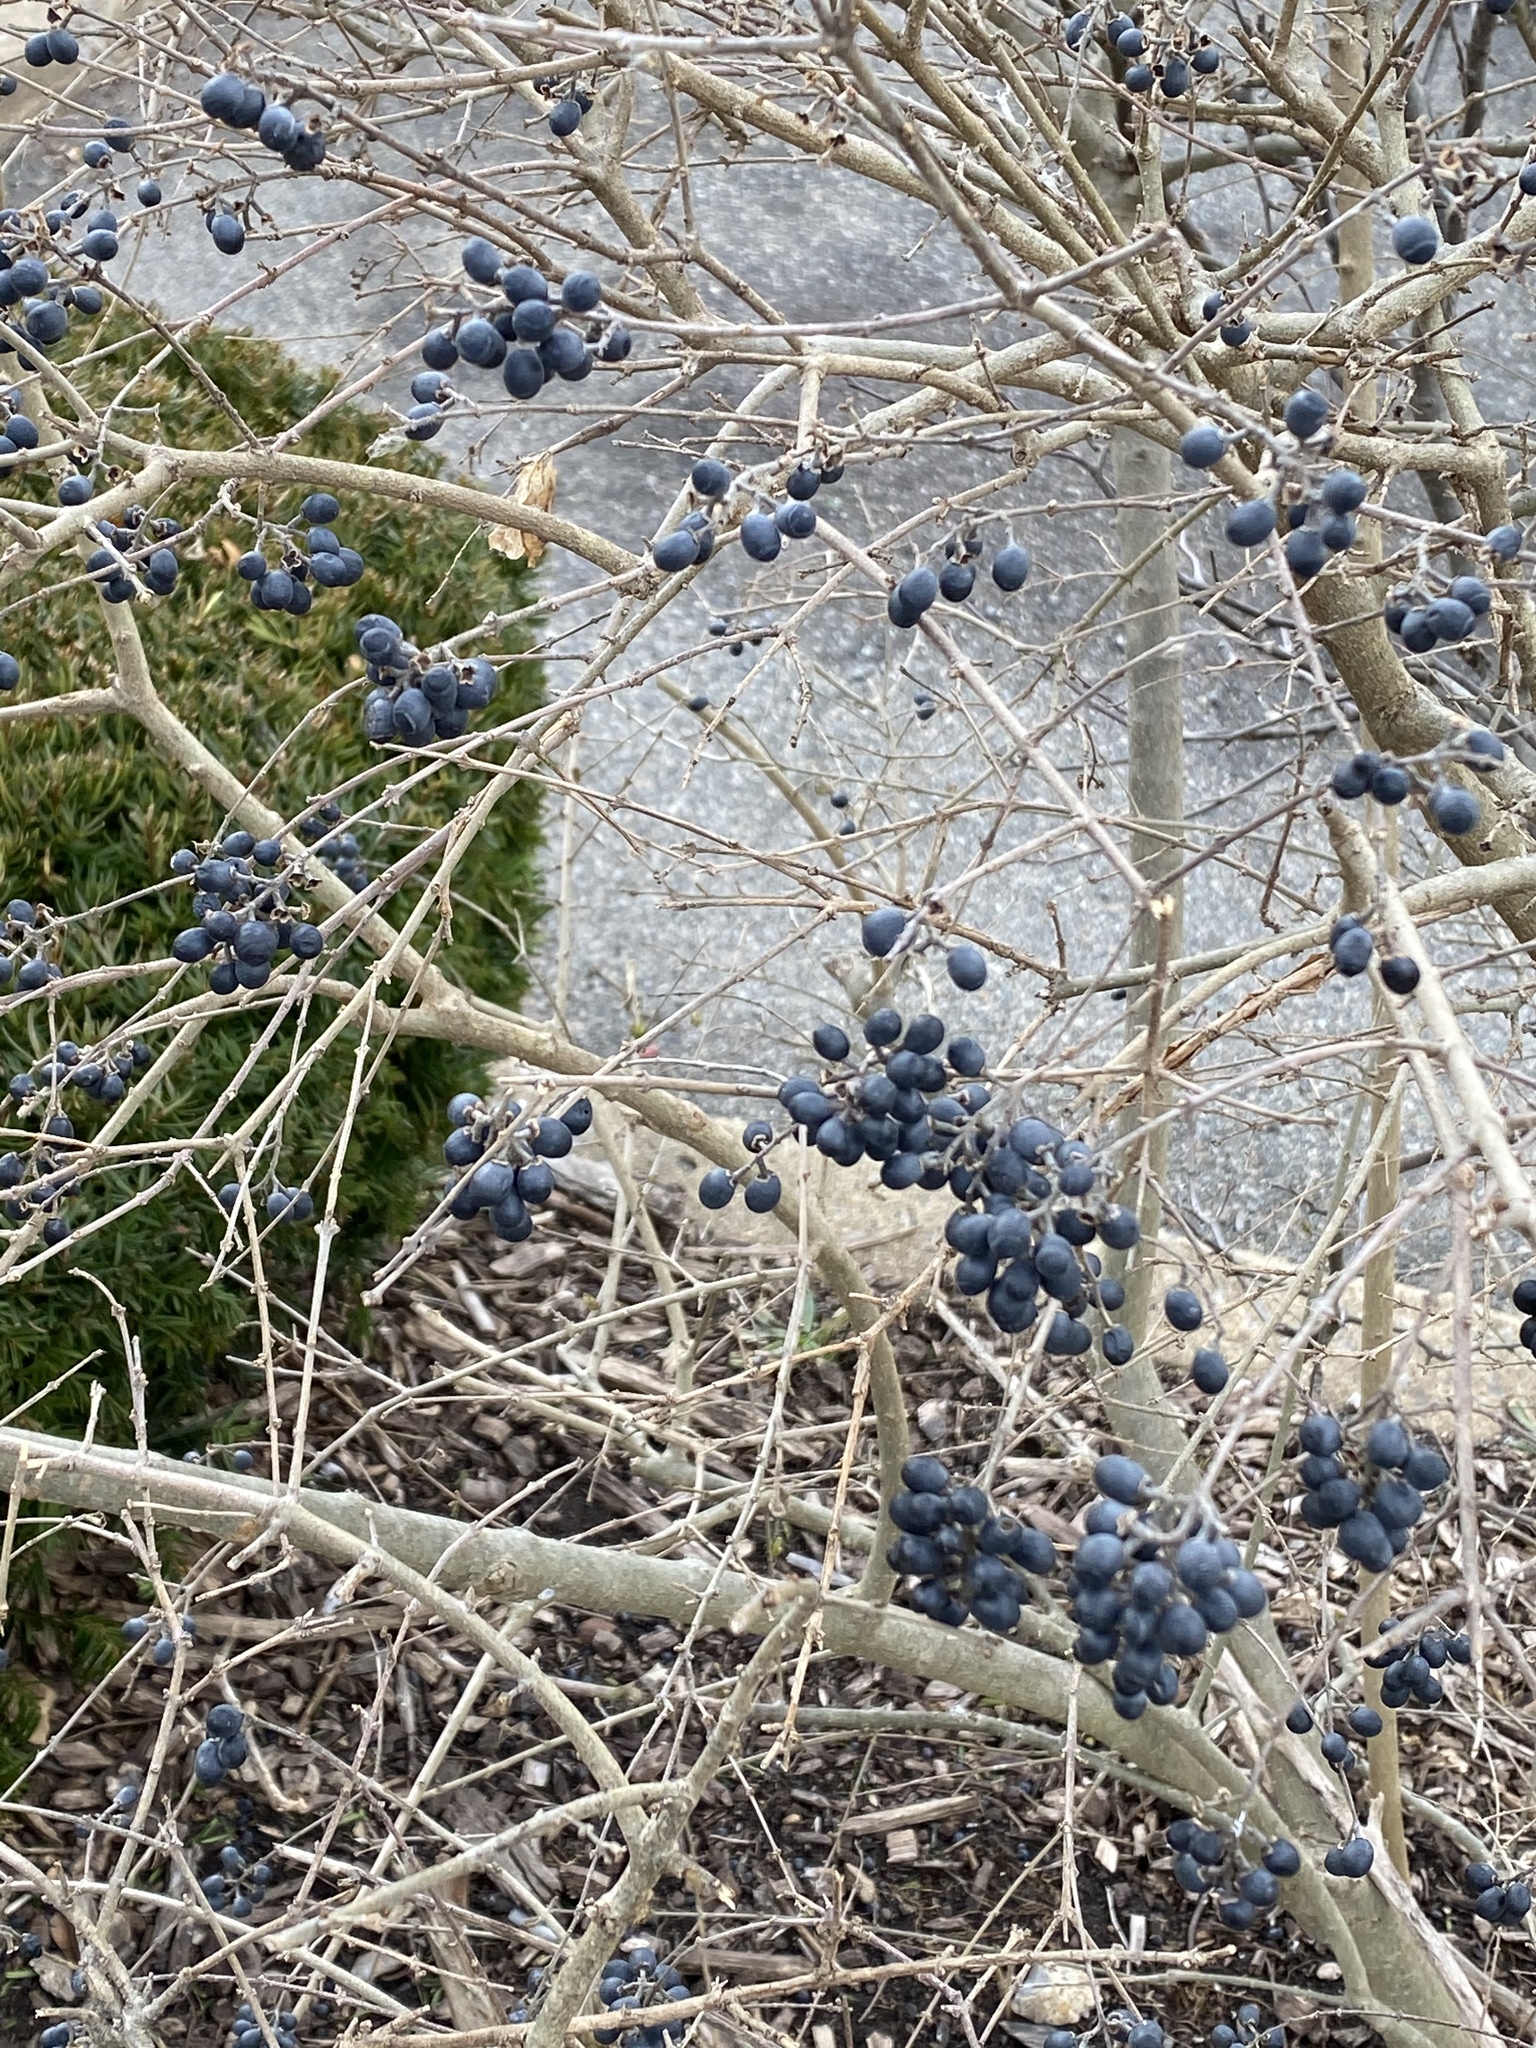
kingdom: Plantae
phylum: Tracheophyta
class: Magnoliopsida
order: Lamiales
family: Oleaceae
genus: Ligustrum
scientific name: Ligustrum obtusifolium
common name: Border privet
